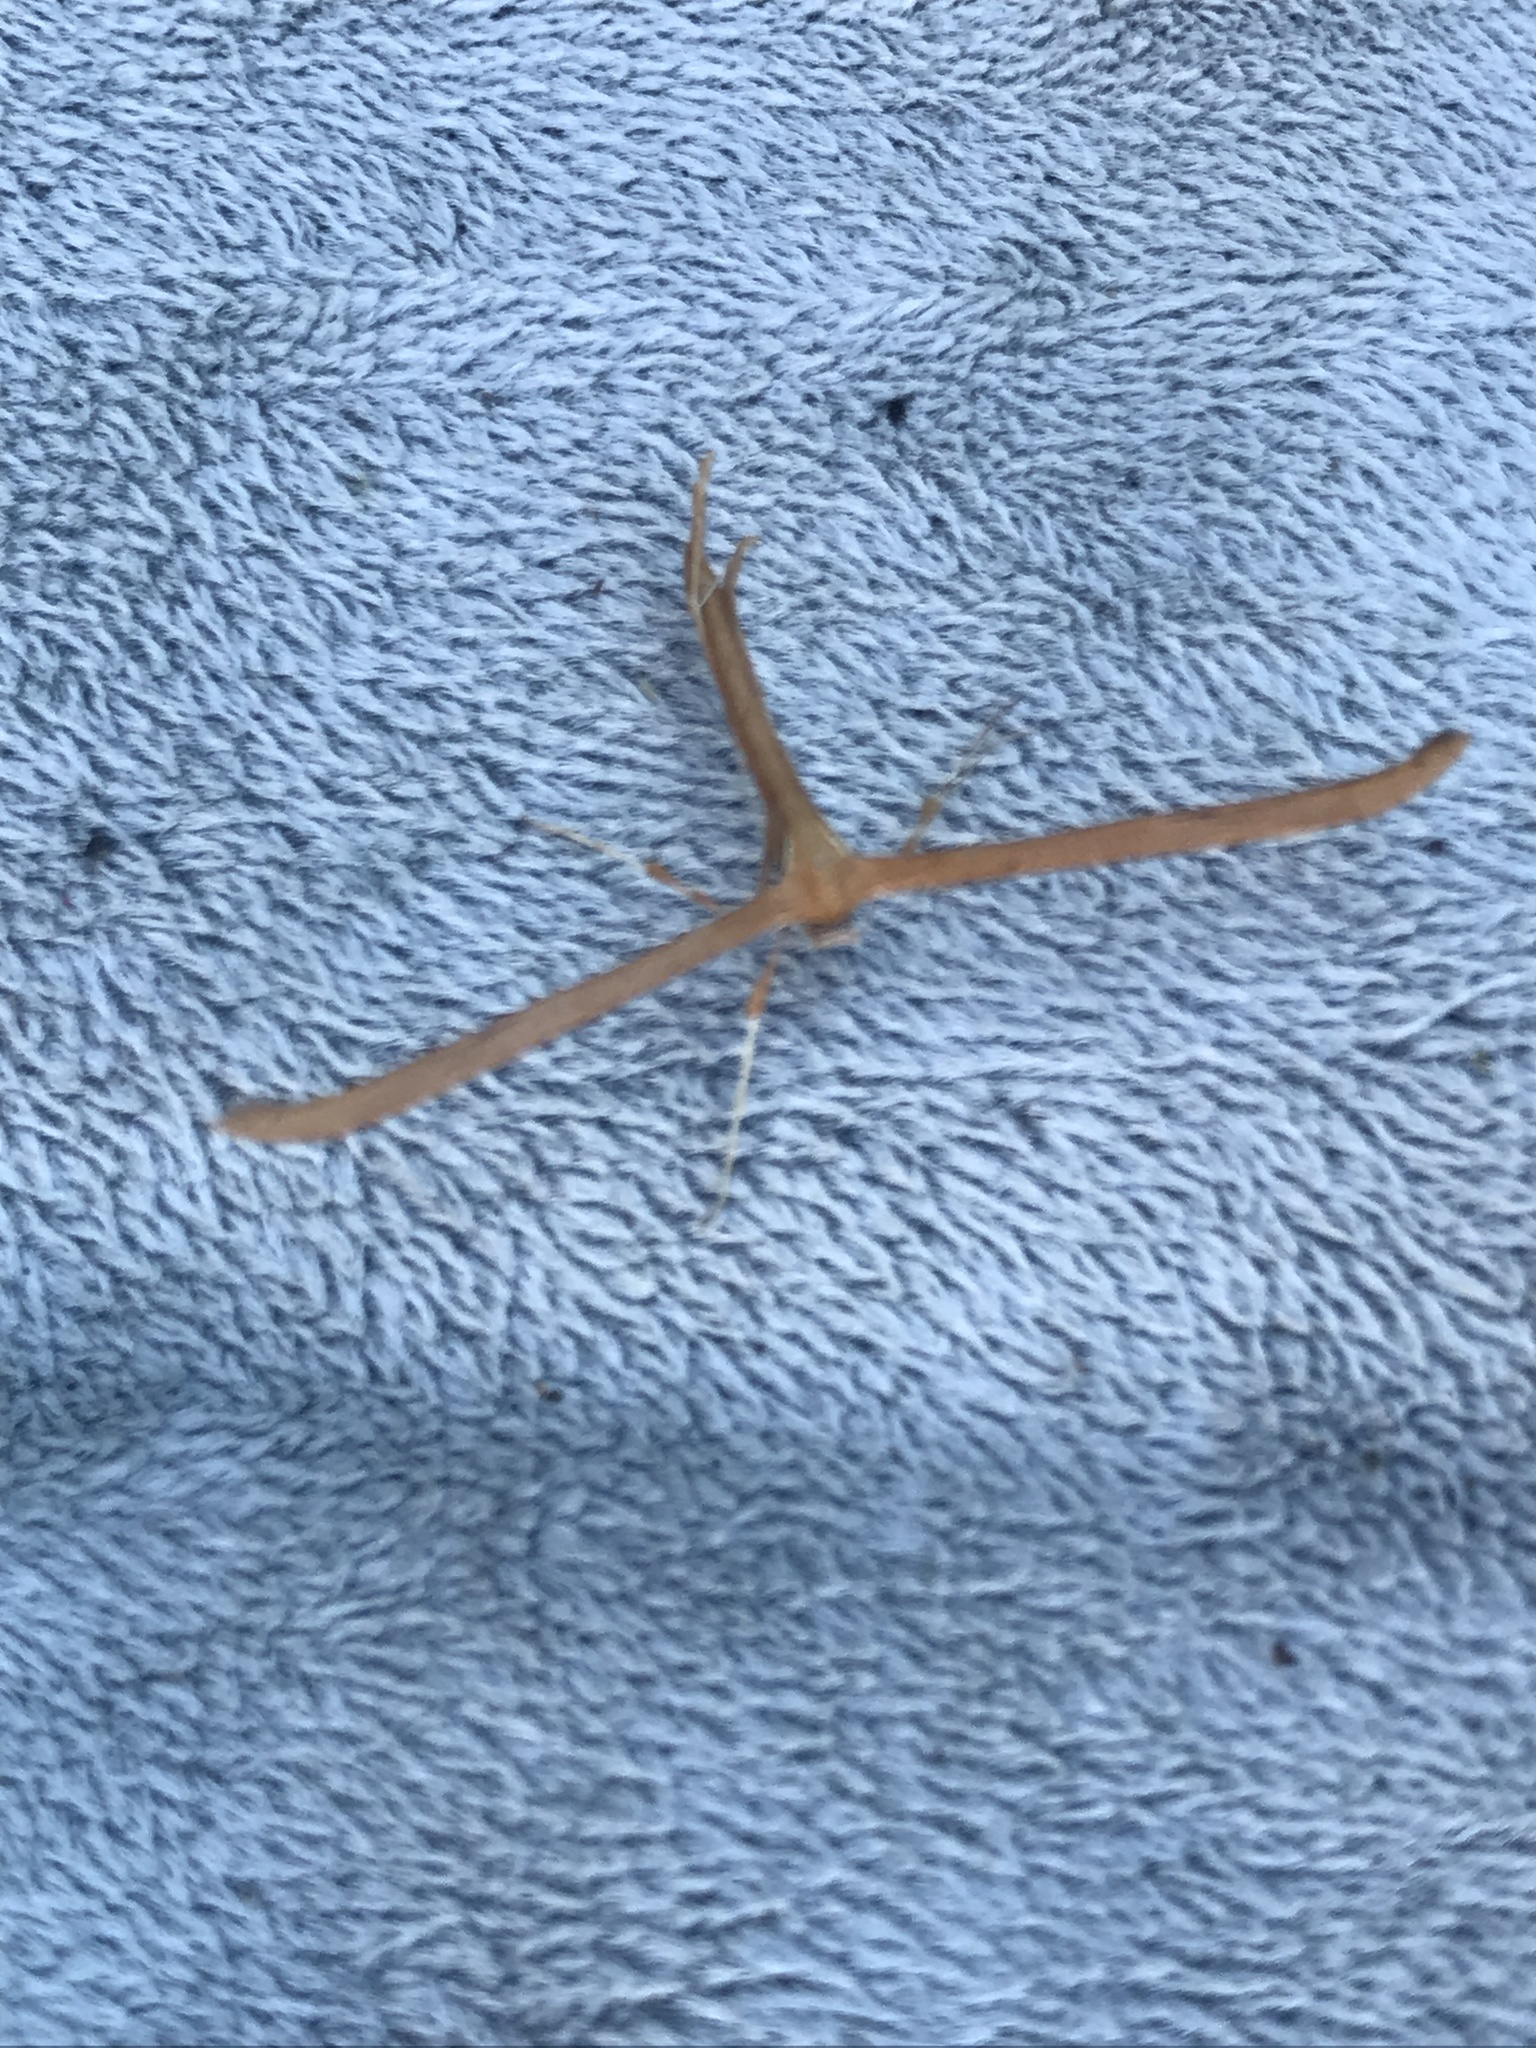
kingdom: Animalia
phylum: Arthropoda
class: Insecta
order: Lepidoptera
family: Pterophoridae
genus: Emmelina
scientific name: Emmelina monodactyla
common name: Common plume
